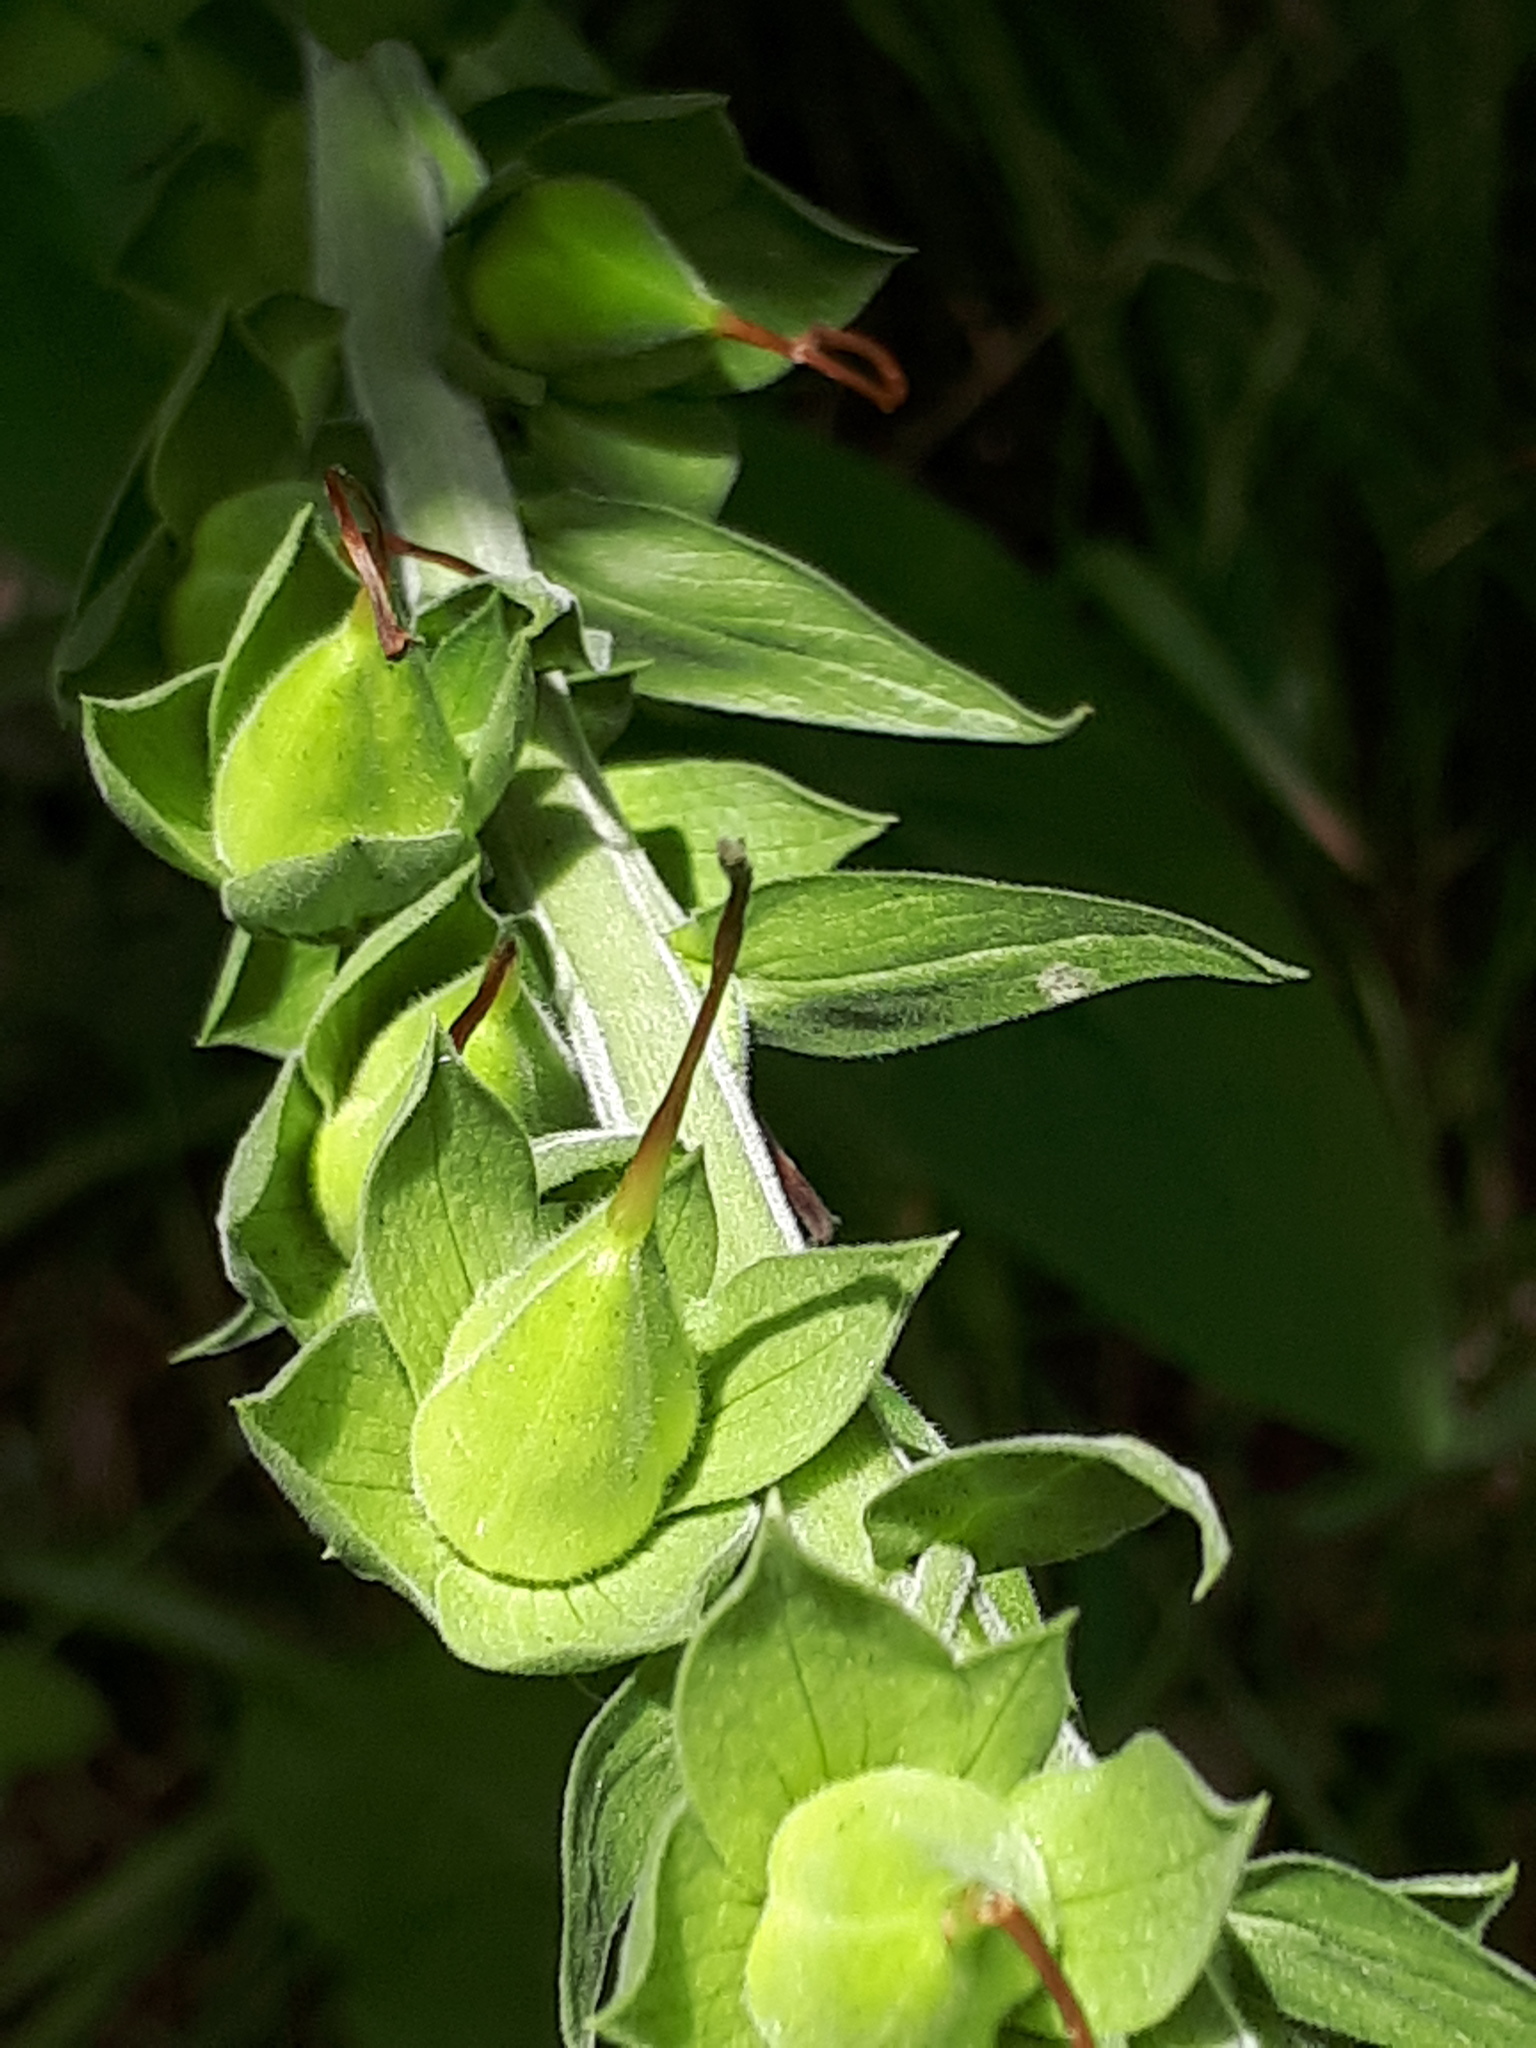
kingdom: Plantae
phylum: Tracheophyta
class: Magnoliopsida
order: Lamiales
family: Plantaginaceae
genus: Digitalis
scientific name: Digitalis purpurea
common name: Foxglove
